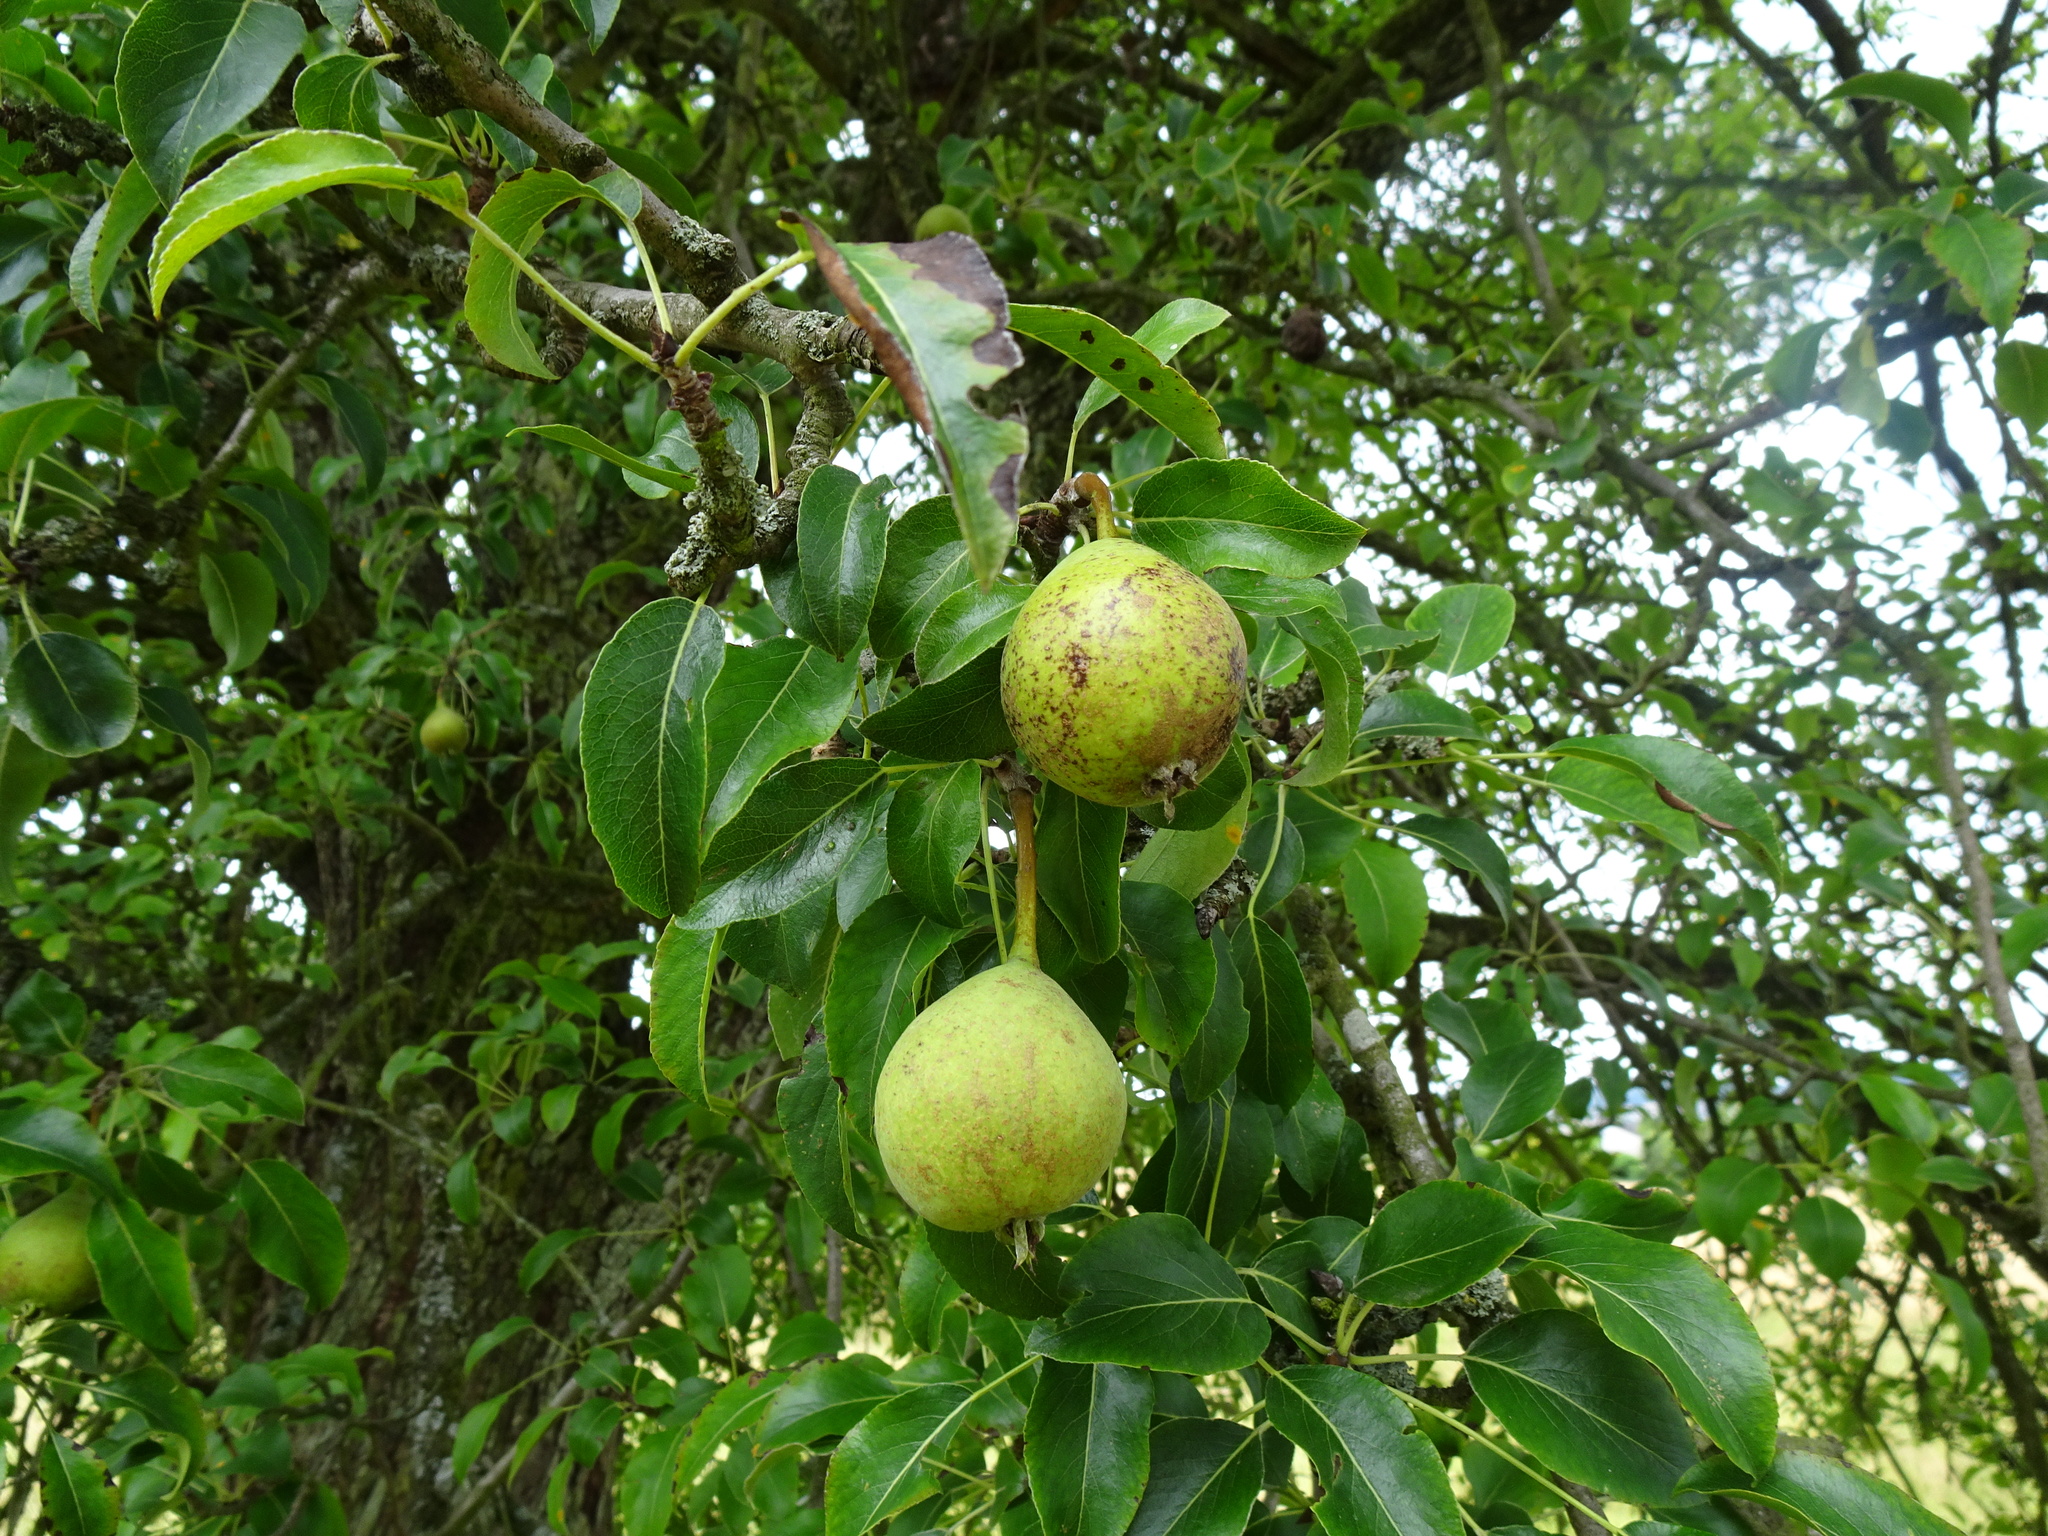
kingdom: Plantae
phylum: Tracheophyta
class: Magnoliopsida
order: Rosales
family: Rosaceae
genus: Pyrus
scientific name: Pyrus communis
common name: Pear
